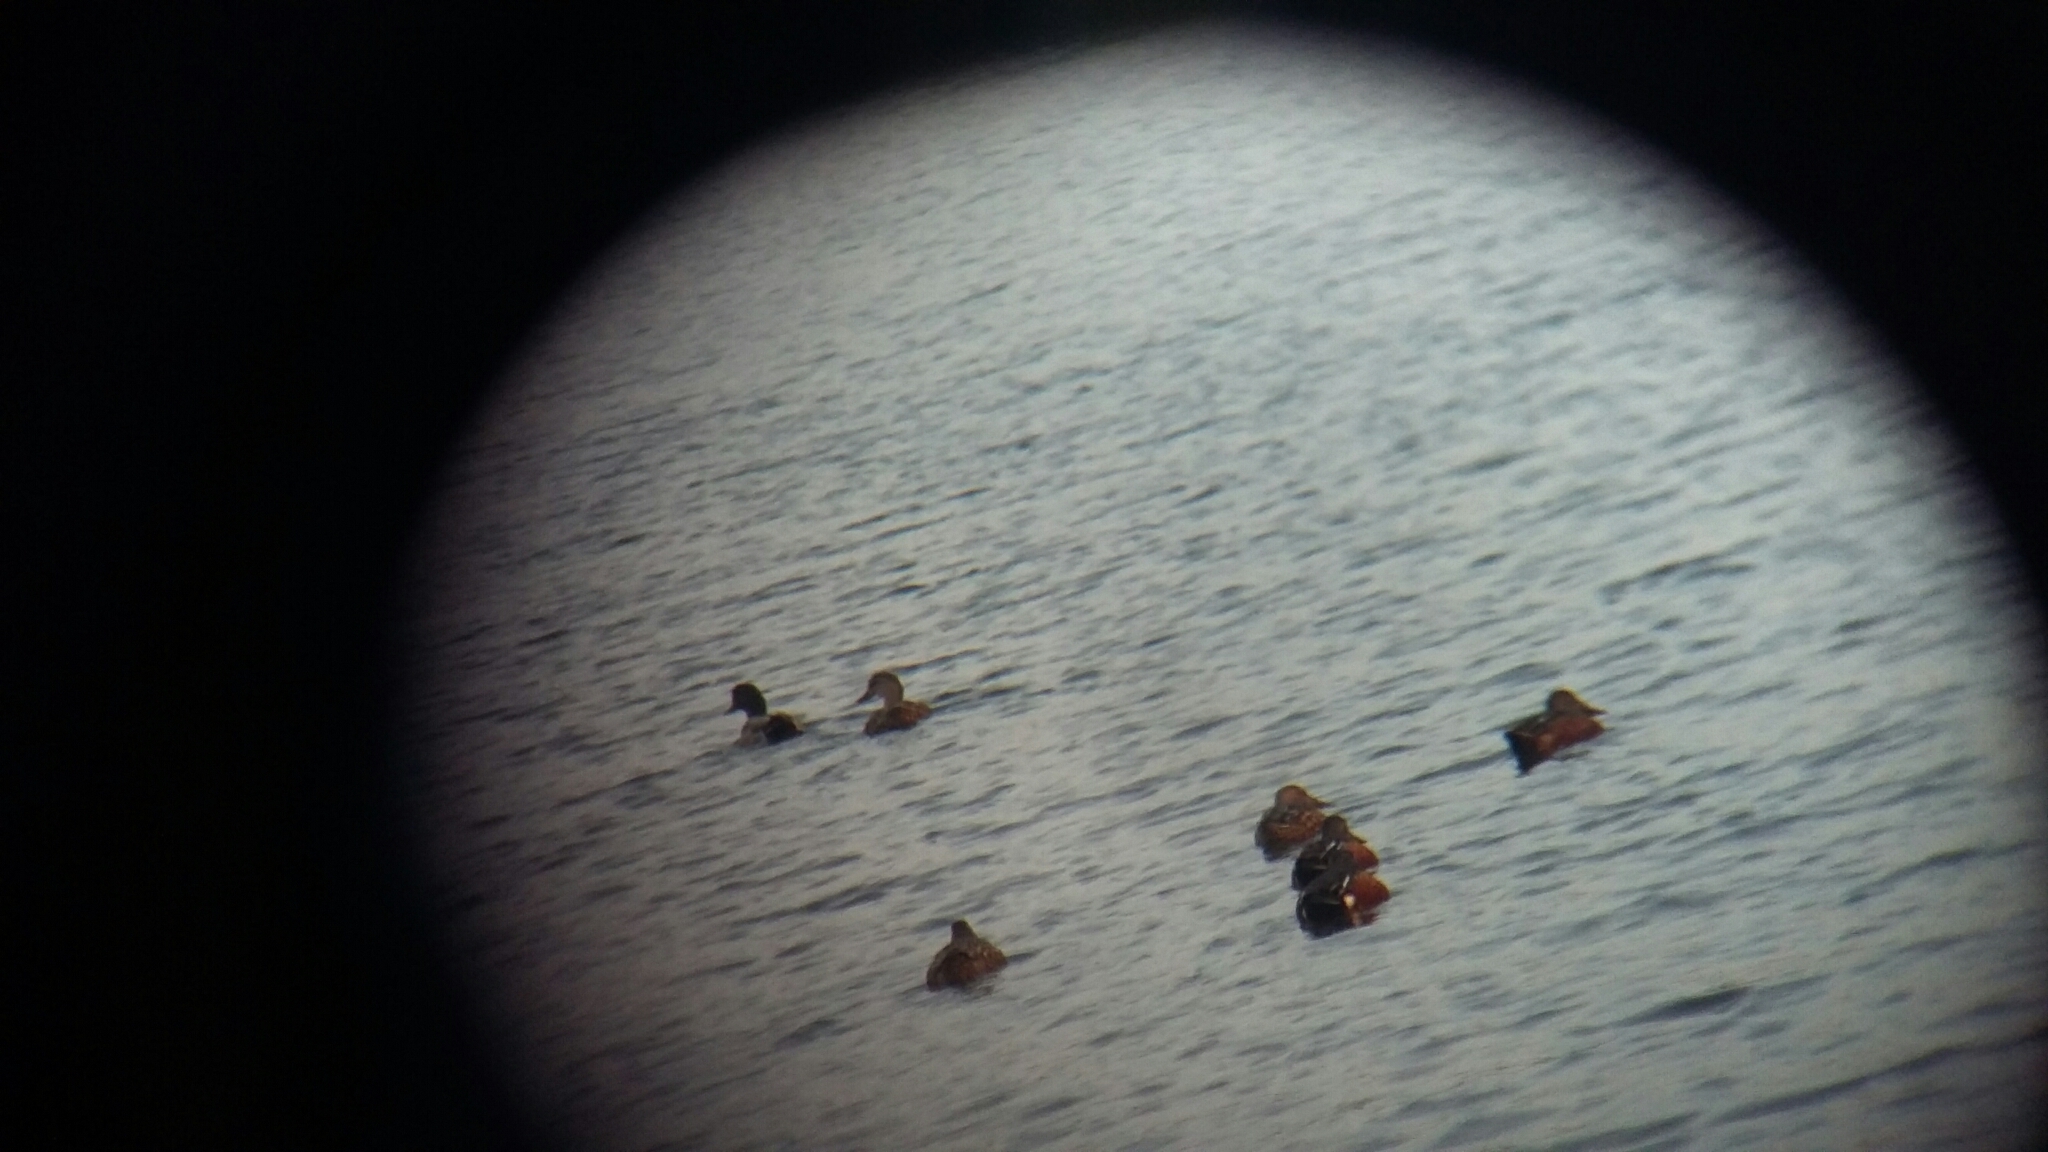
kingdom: Animalia
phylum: Chordata
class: Aves
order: Anseriformes
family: Anatidae
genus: Spatula
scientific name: Spatula rhynchotis
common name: Australian shoveler
